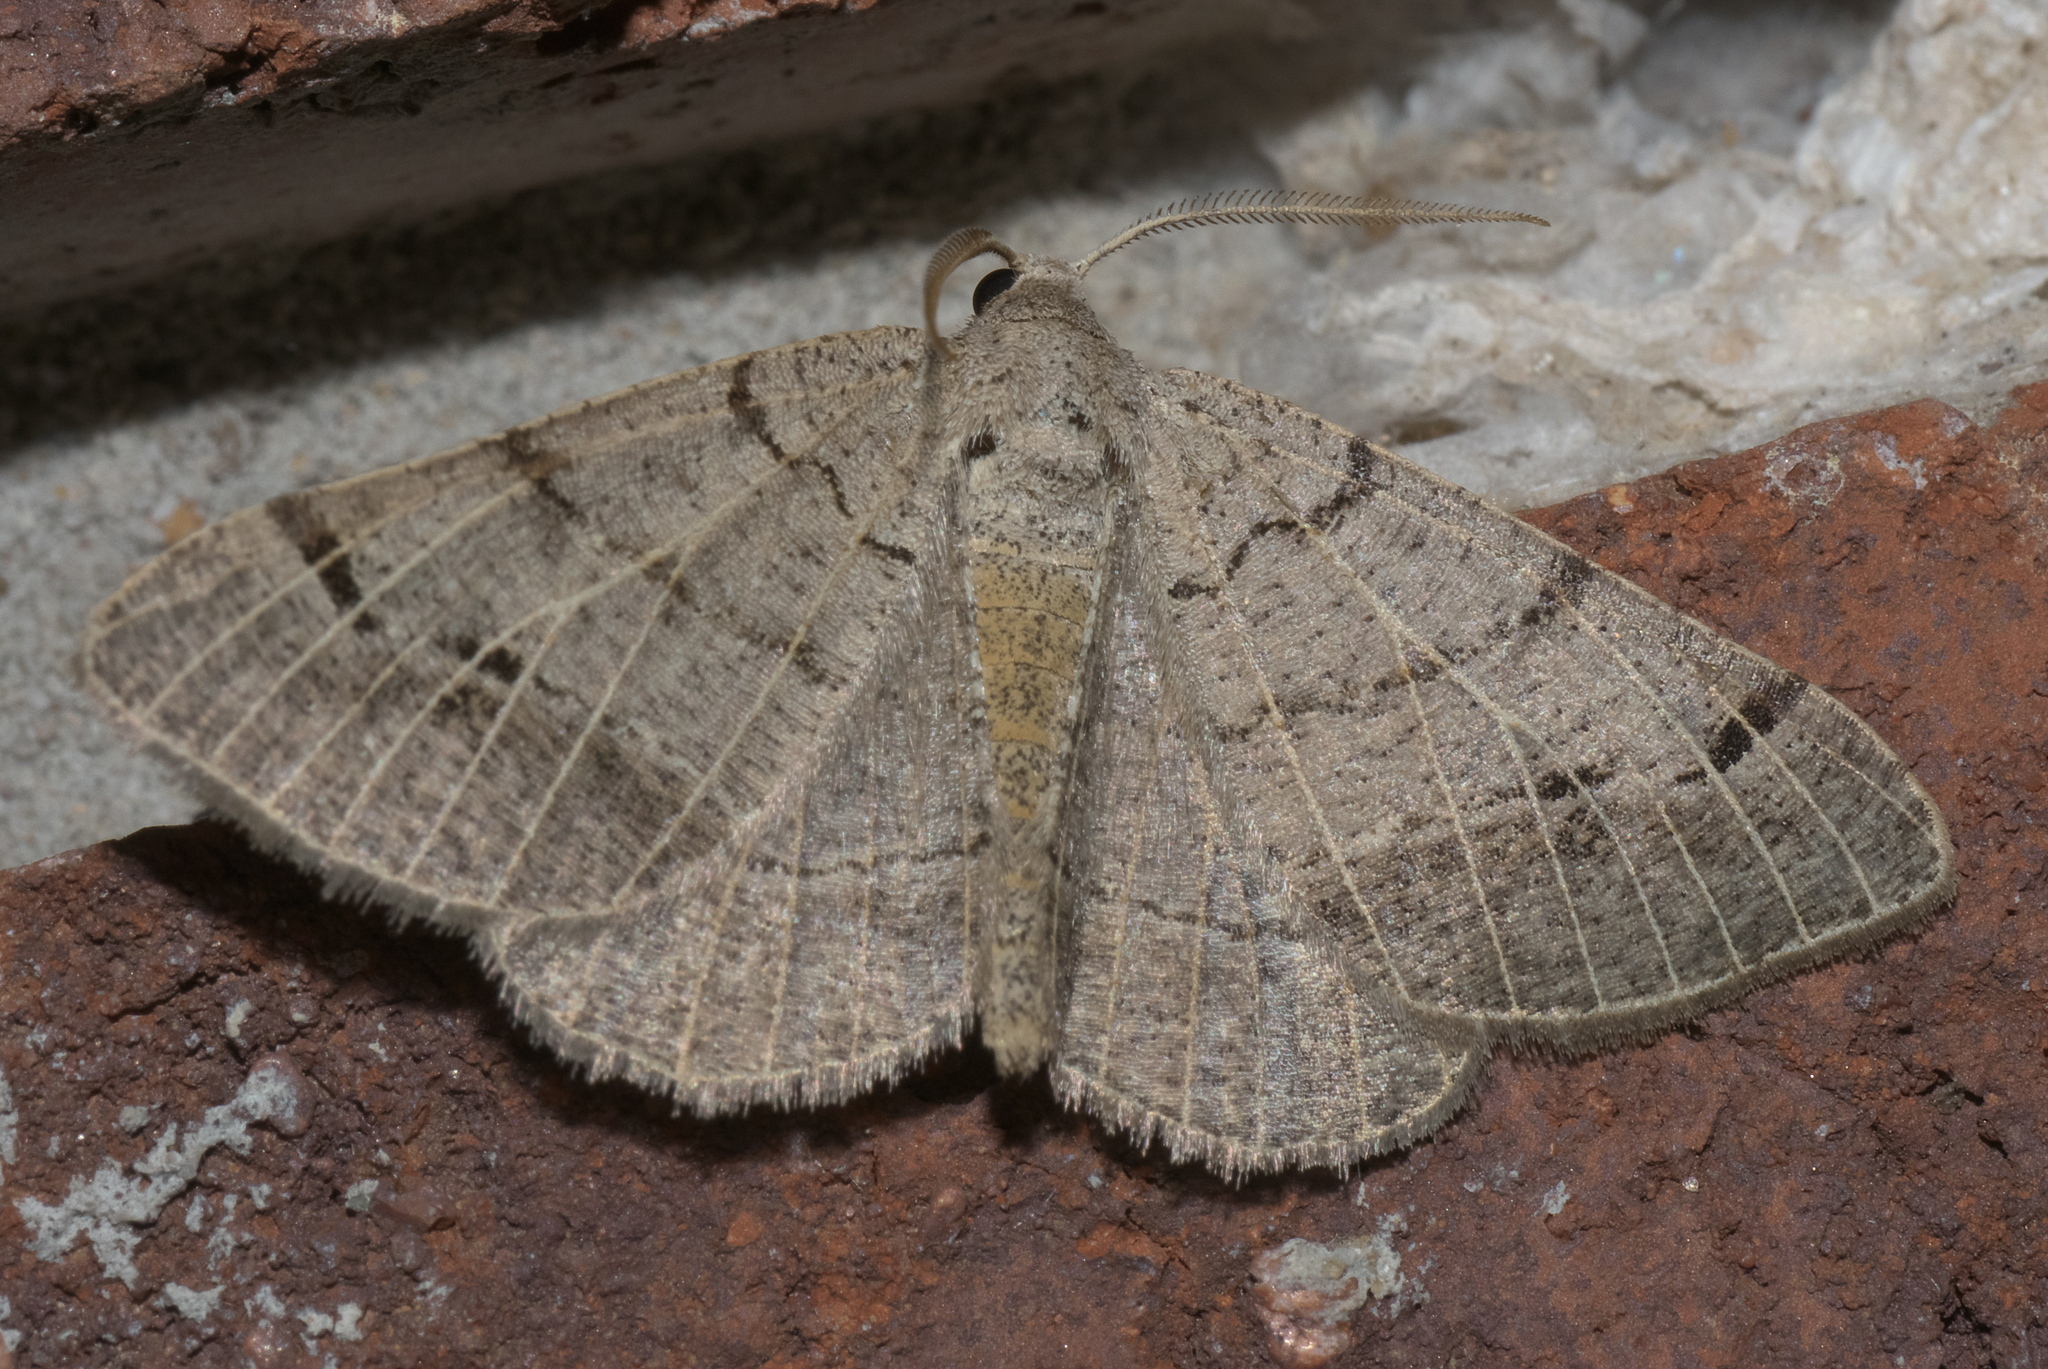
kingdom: Animalia
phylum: Arthropoda
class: Insecta
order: Lepidoptera
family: Geometridae
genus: Isturgia
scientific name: Isturgia dislocaria
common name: Pale-viened enconista
